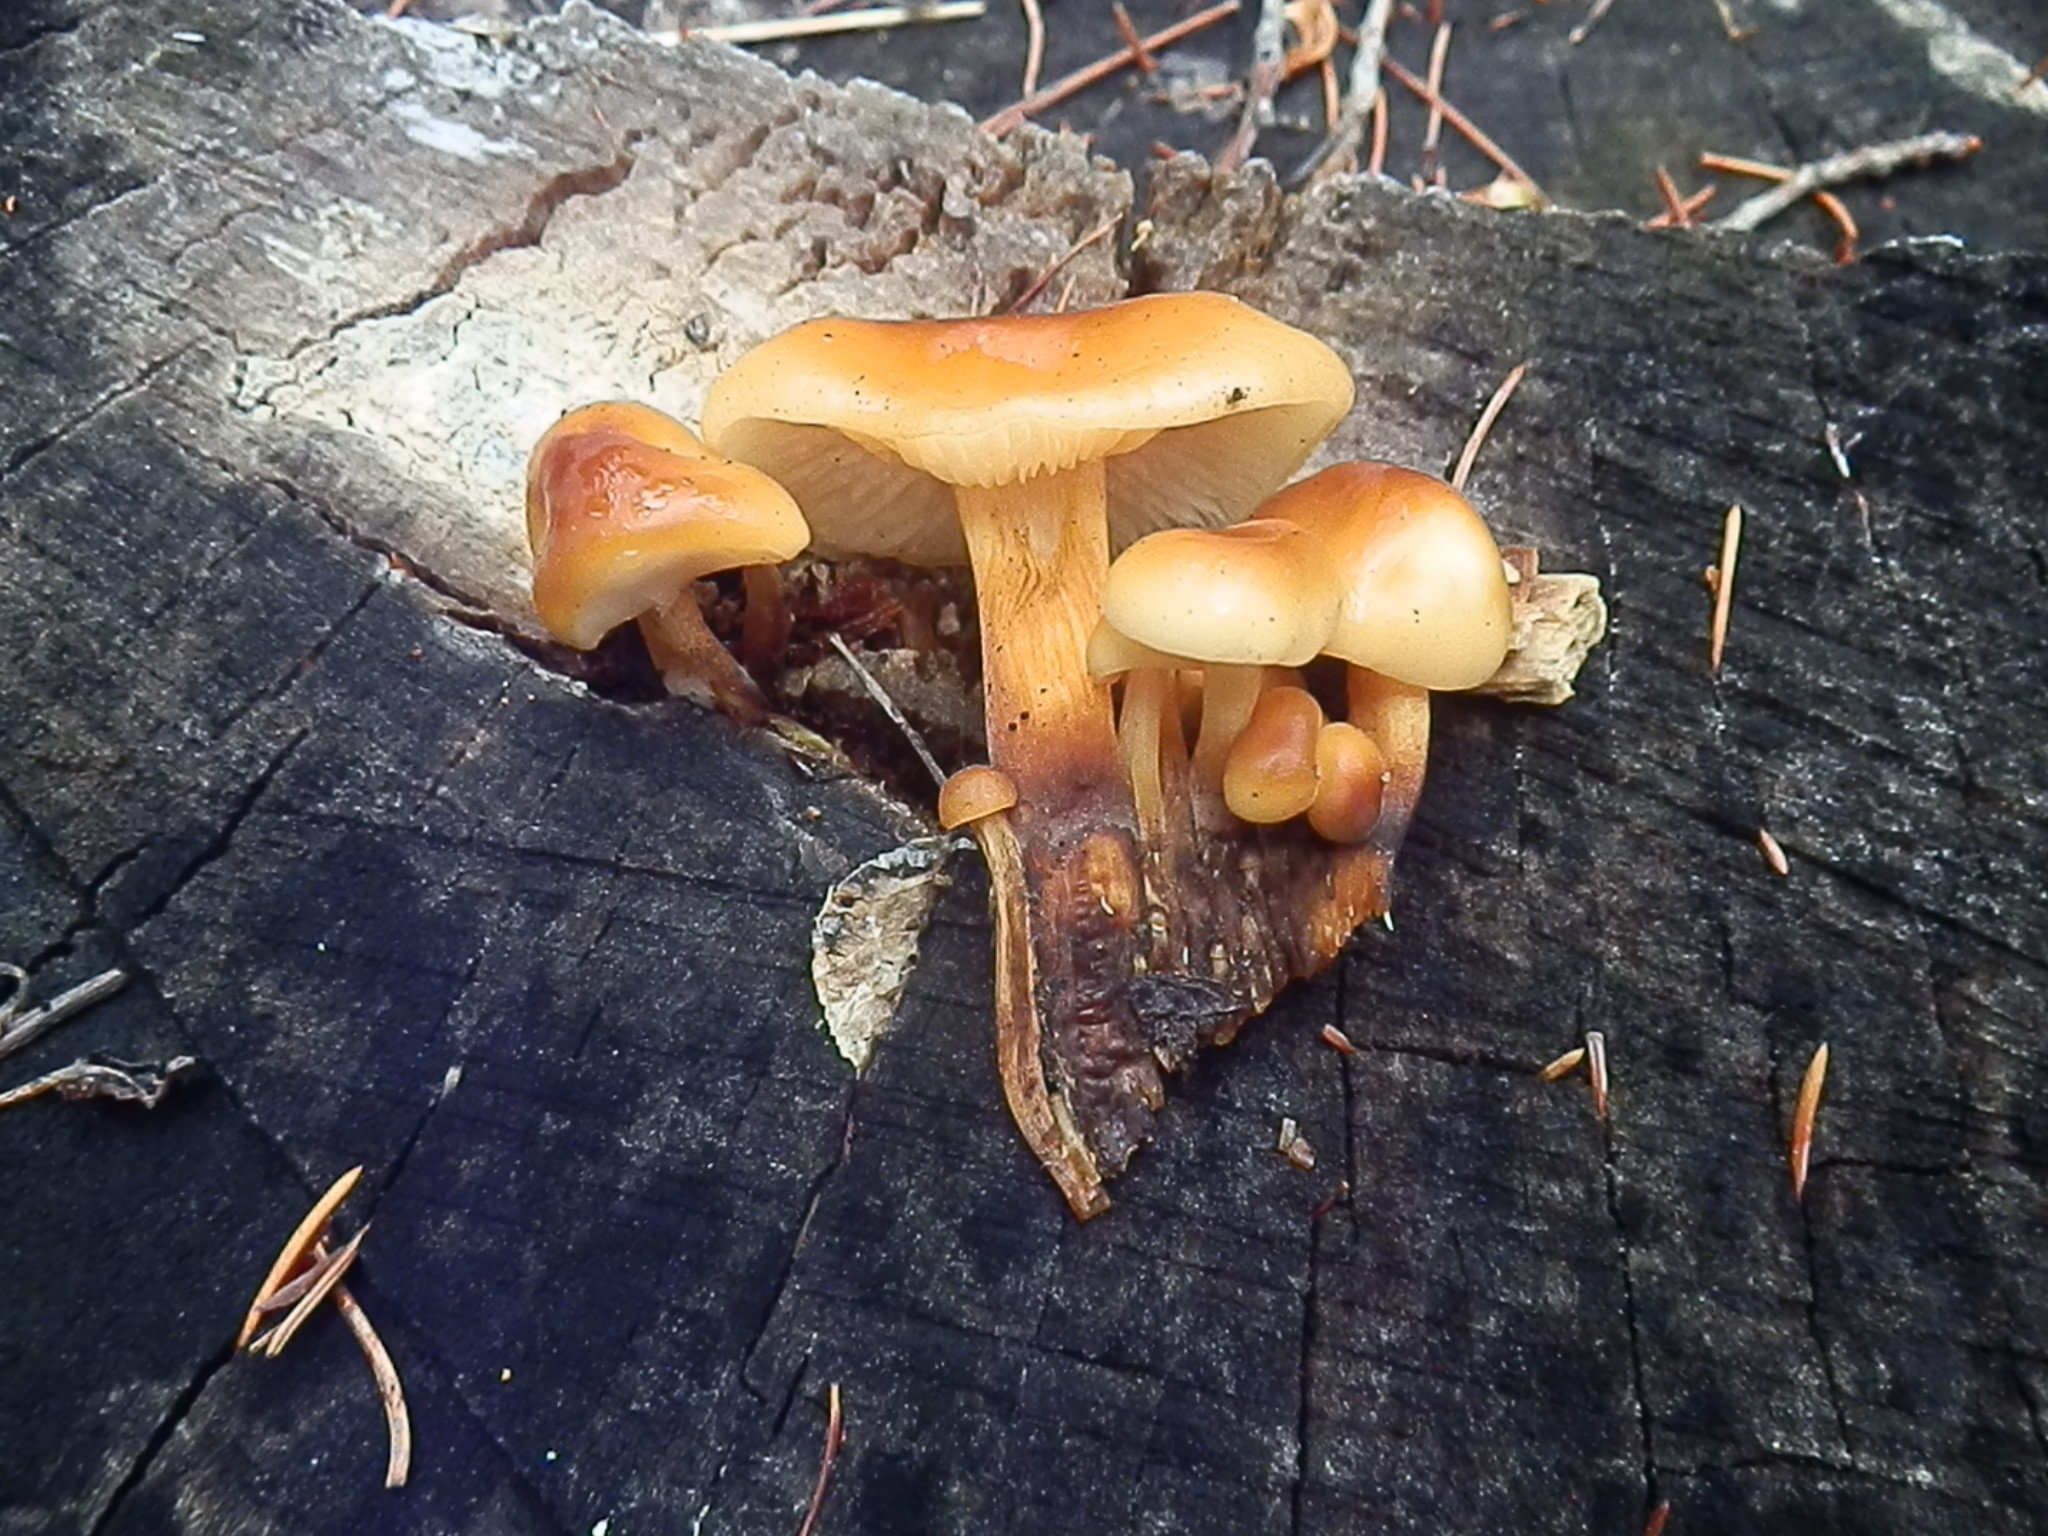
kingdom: Fungi
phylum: Basidiomycota
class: Agaricomycetes
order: Agaricales
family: Physalacriaceae
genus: Flammulina
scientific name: Flammulina populicola
